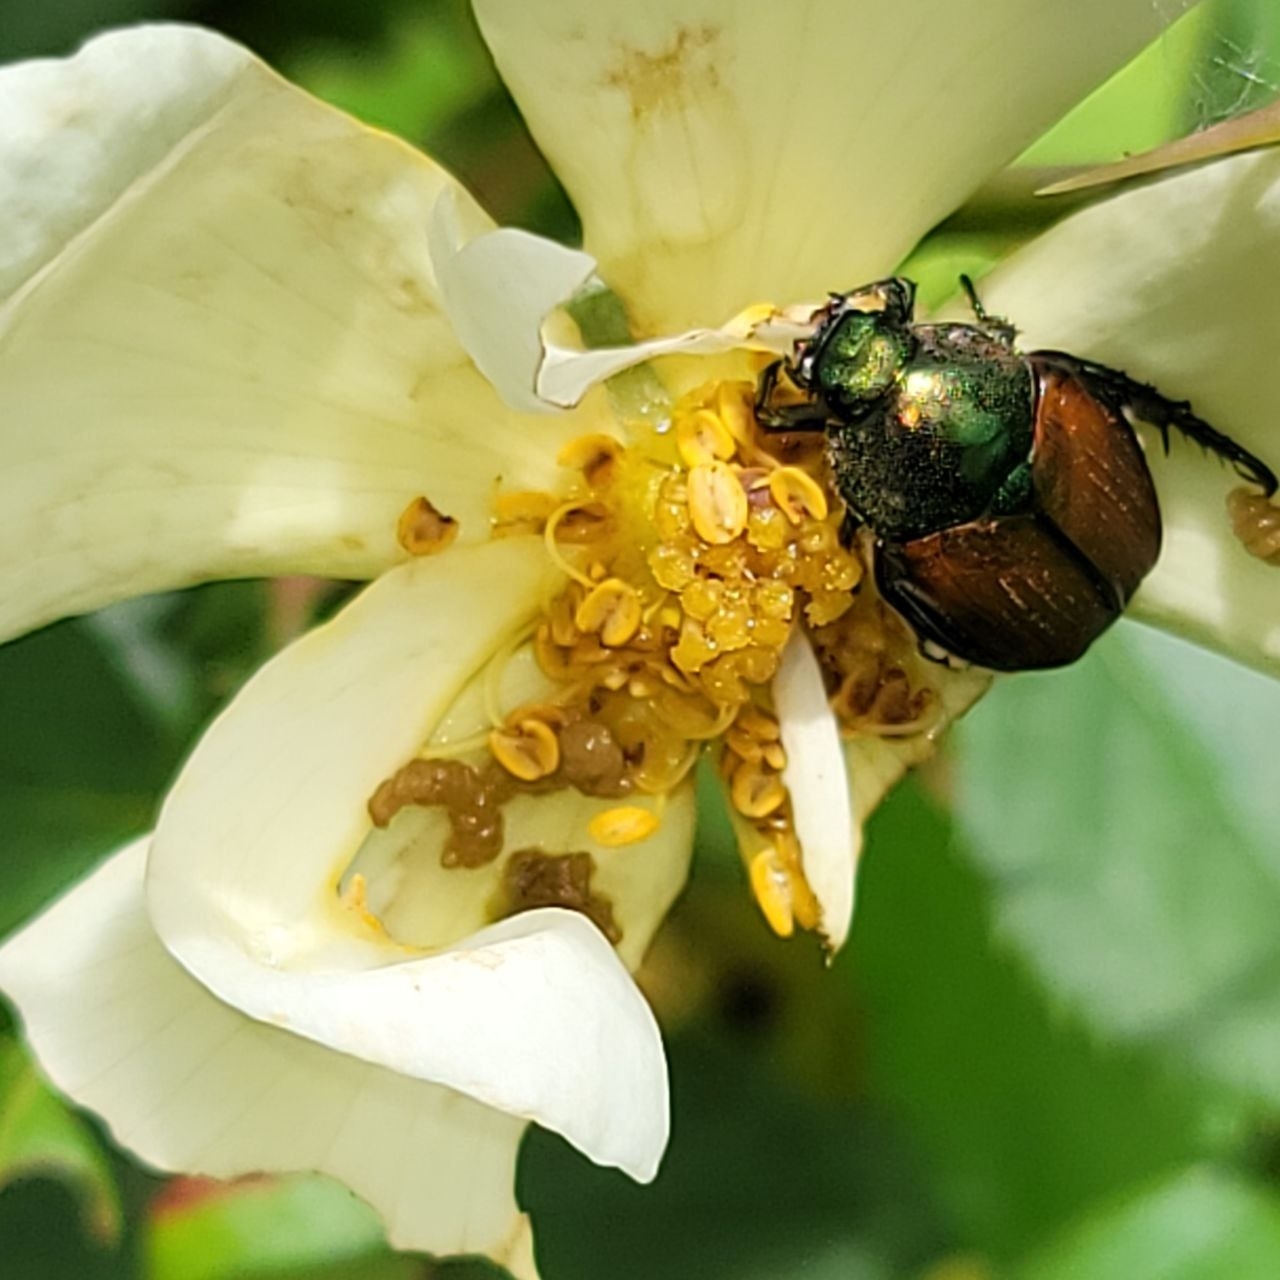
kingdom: Animalia
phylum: Arthropoda
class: Insecta
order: Coleoptera
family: Scarabaeidae
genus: Popillia
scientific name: Popillia japonica
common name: Japanese beetle
